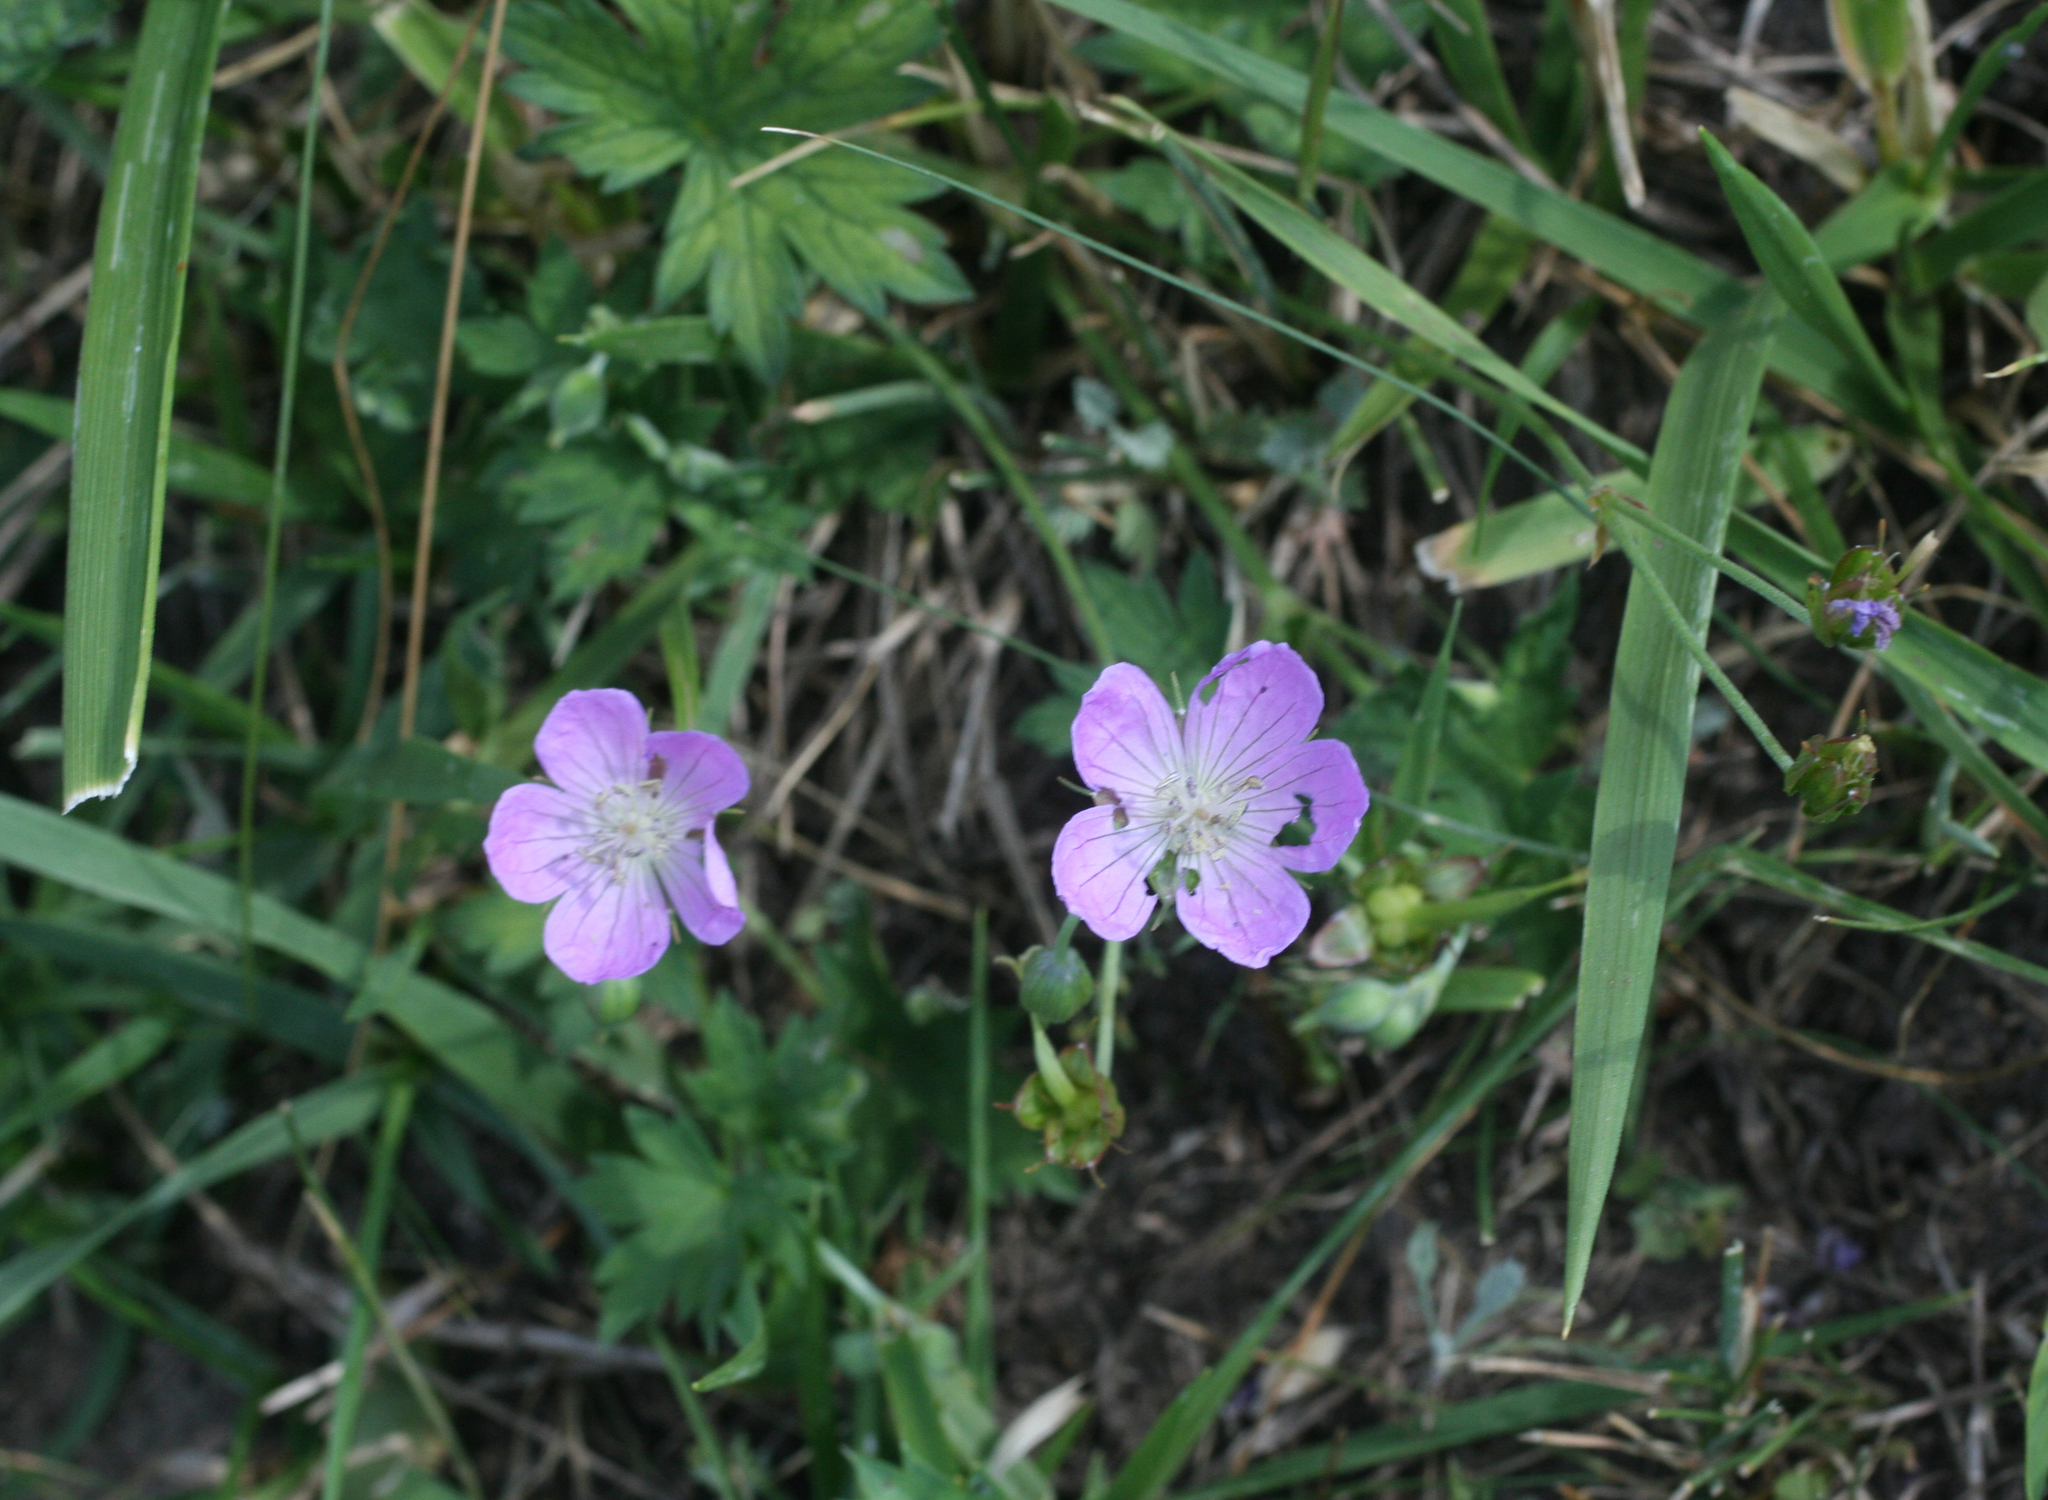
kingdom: Plantae
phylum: Tracheophyta
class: Magnoliopsida
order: Geraniales
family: Geraniaceae
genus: Geranium
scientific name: Geranium collinum
